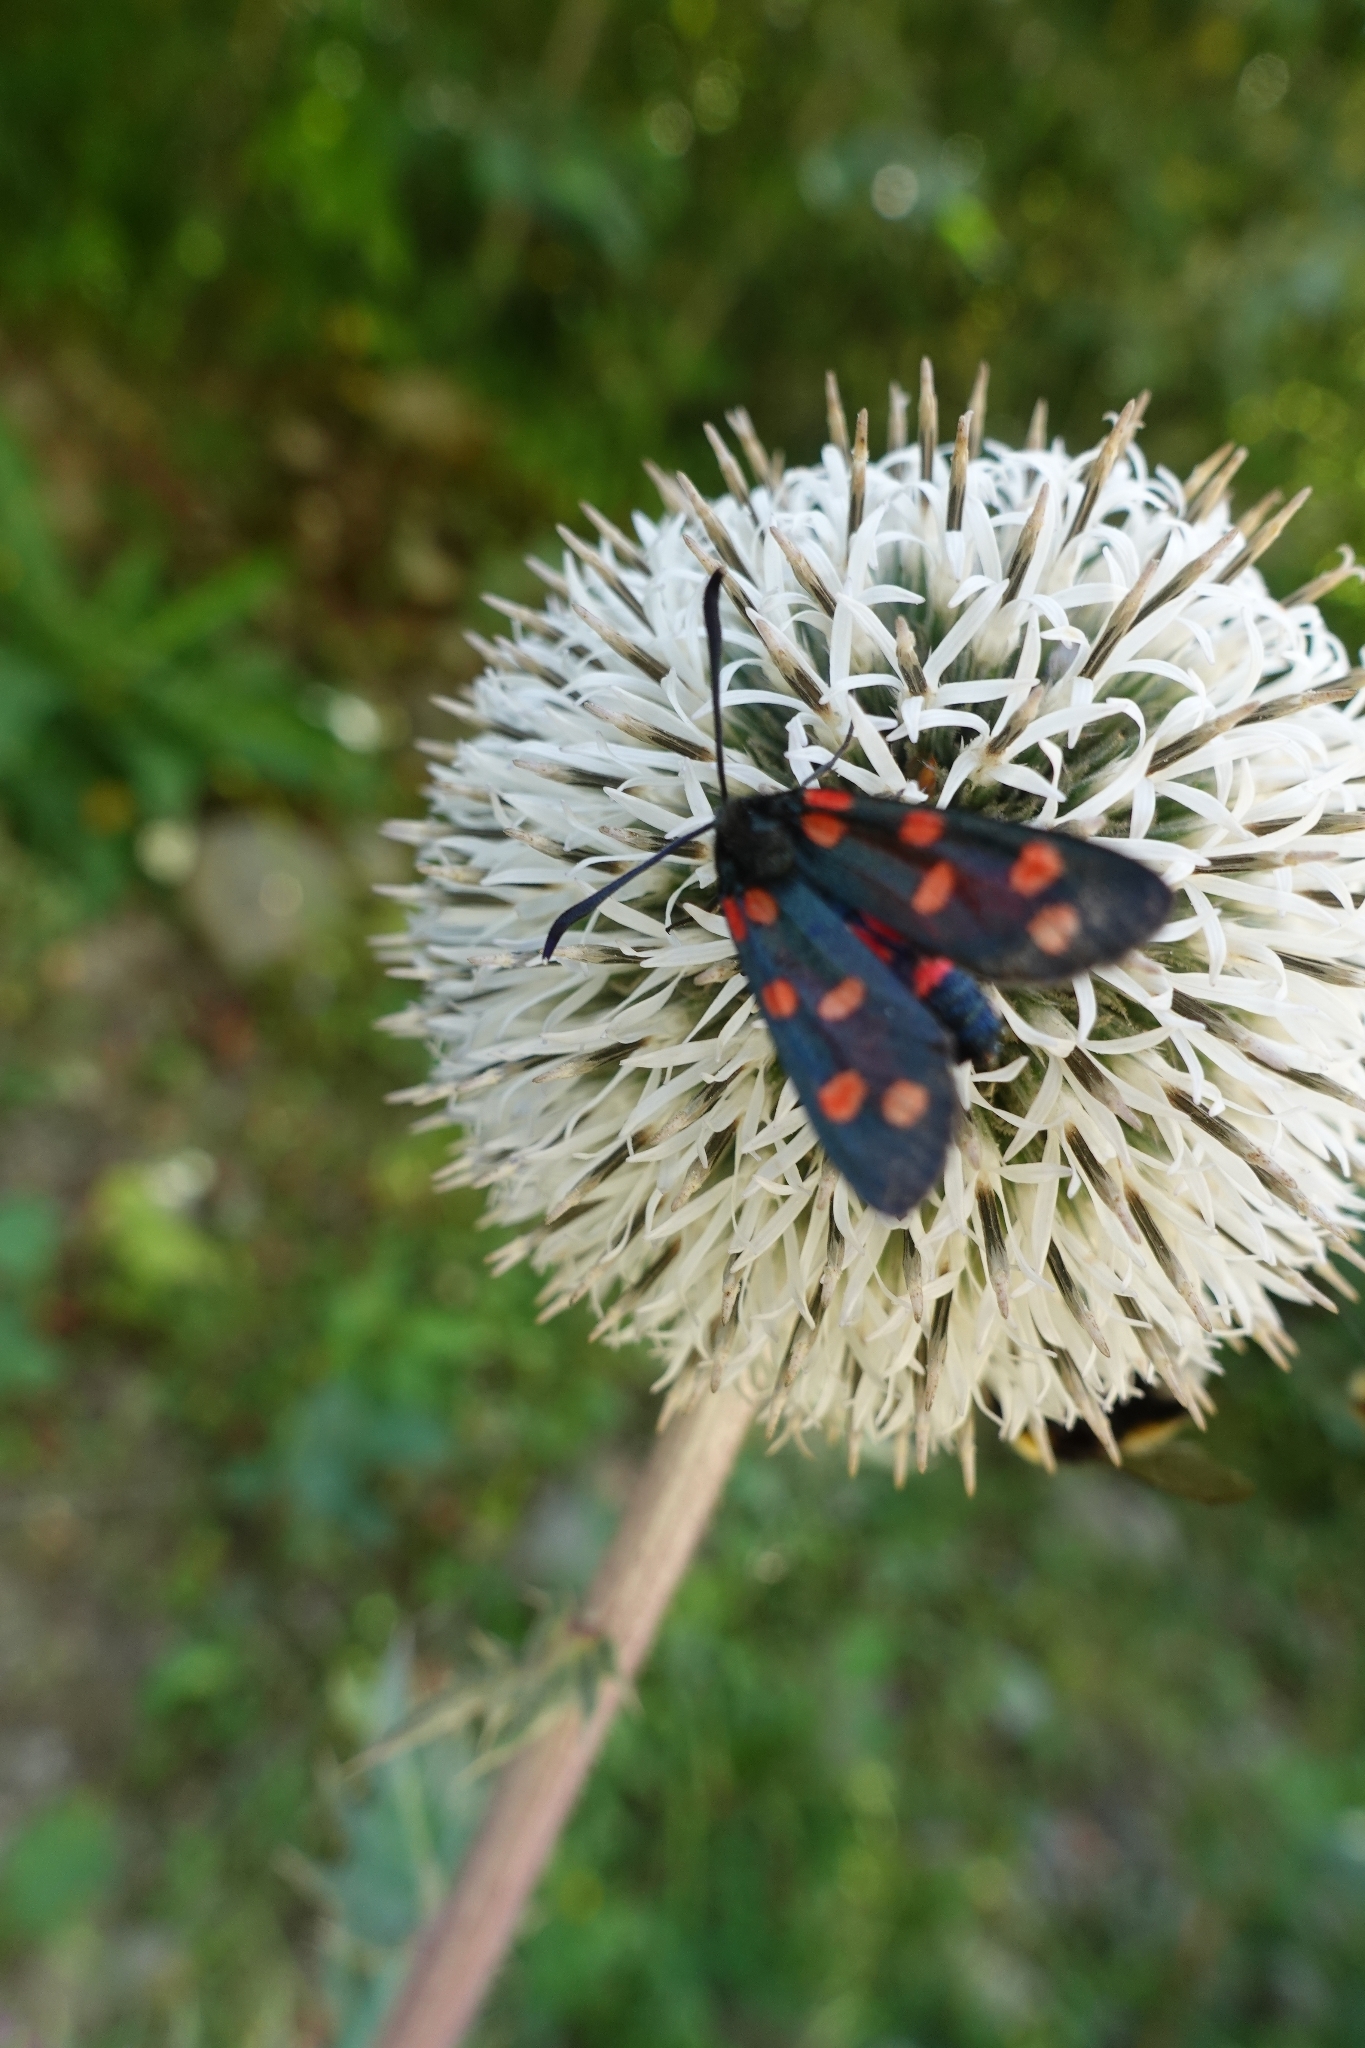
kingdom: Animalia
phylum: Arthropoda
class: Insecta
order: Lepidoptera
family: Zygaenidae
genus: Zygaena
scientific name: Zygaena ephialtes
